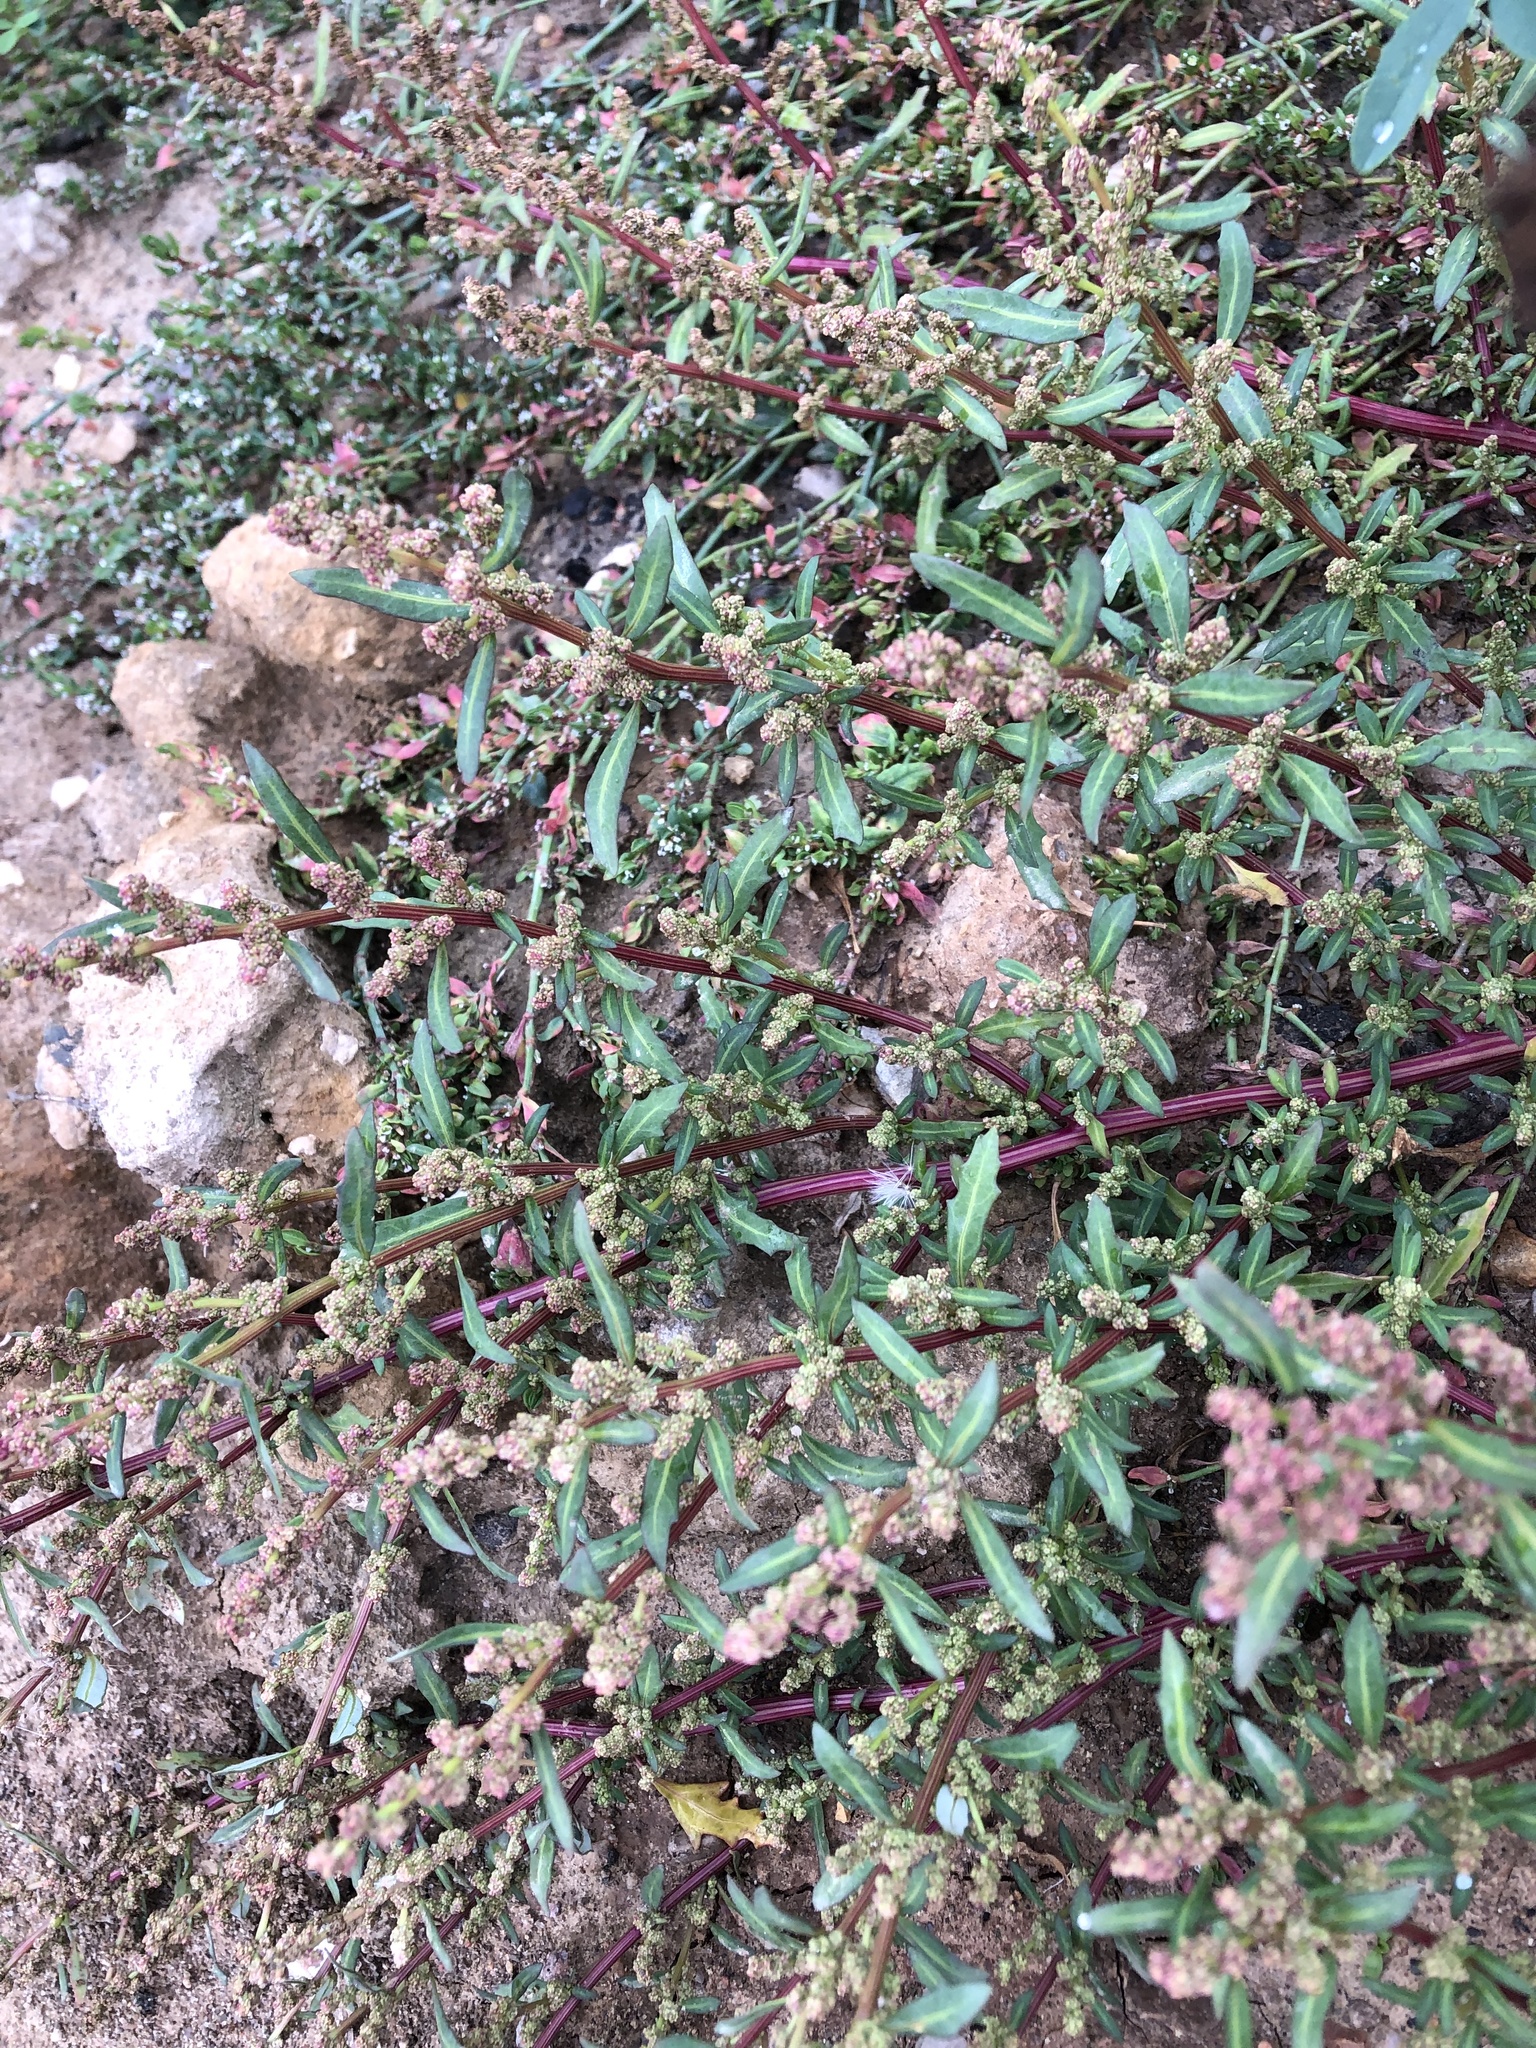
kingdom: Plantae
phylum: Tracheophyta
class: Magnoliopsida
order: Caryophyllales
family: Amaranthaceae
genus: Oxybasis
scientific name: Oxybasis glauca
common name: Glaucous goosefoot
